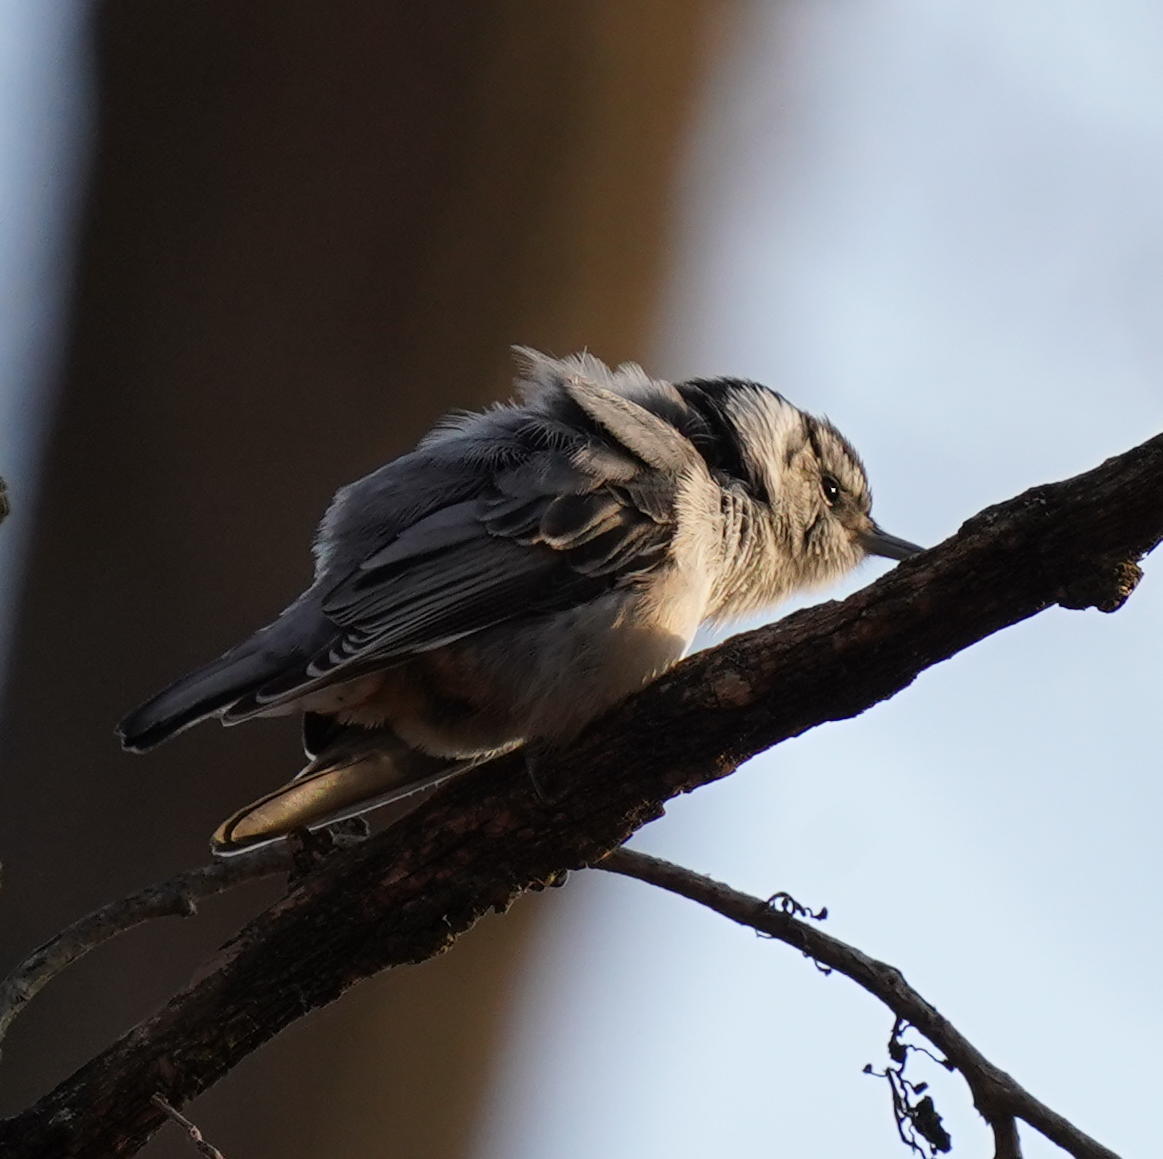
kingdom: Animalia
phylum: Chordata
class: Aves
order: Passeriformes
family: Sittidae
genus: Sitta
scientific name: Sitta carolinensis
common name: White-breasted nuthatch
